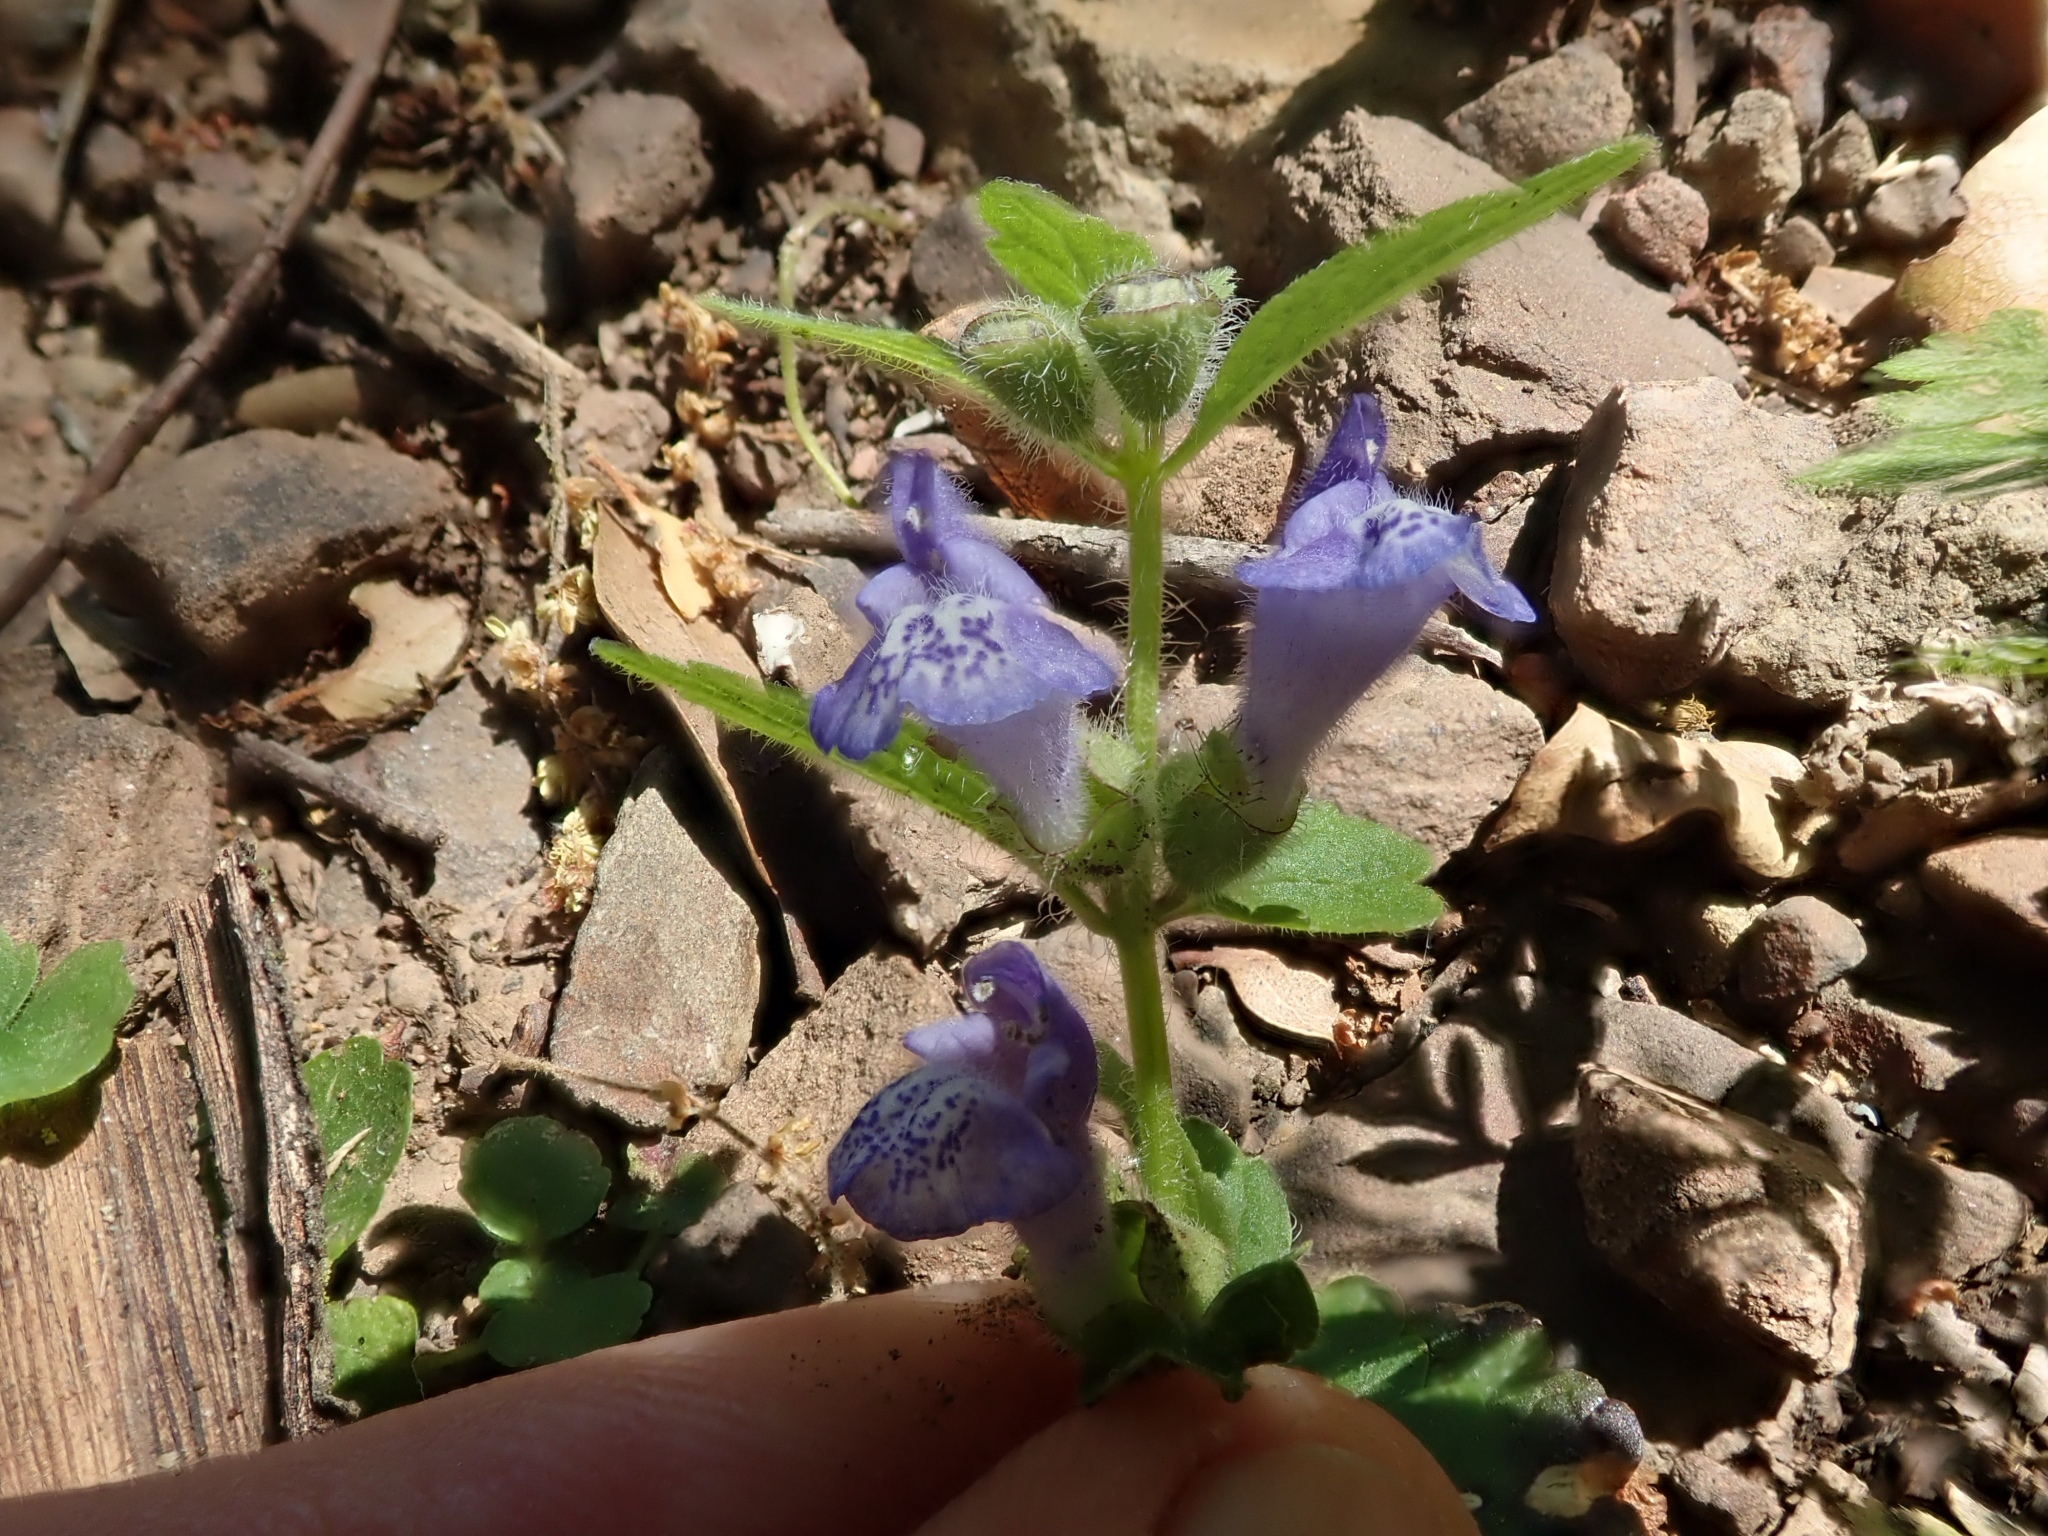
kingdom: Plantae
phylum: Tracheophyta
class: Magnoliopsida
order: Lamiales
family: Lamiaceae
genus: Scutellaria
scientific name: Scutellaria tuberosa
